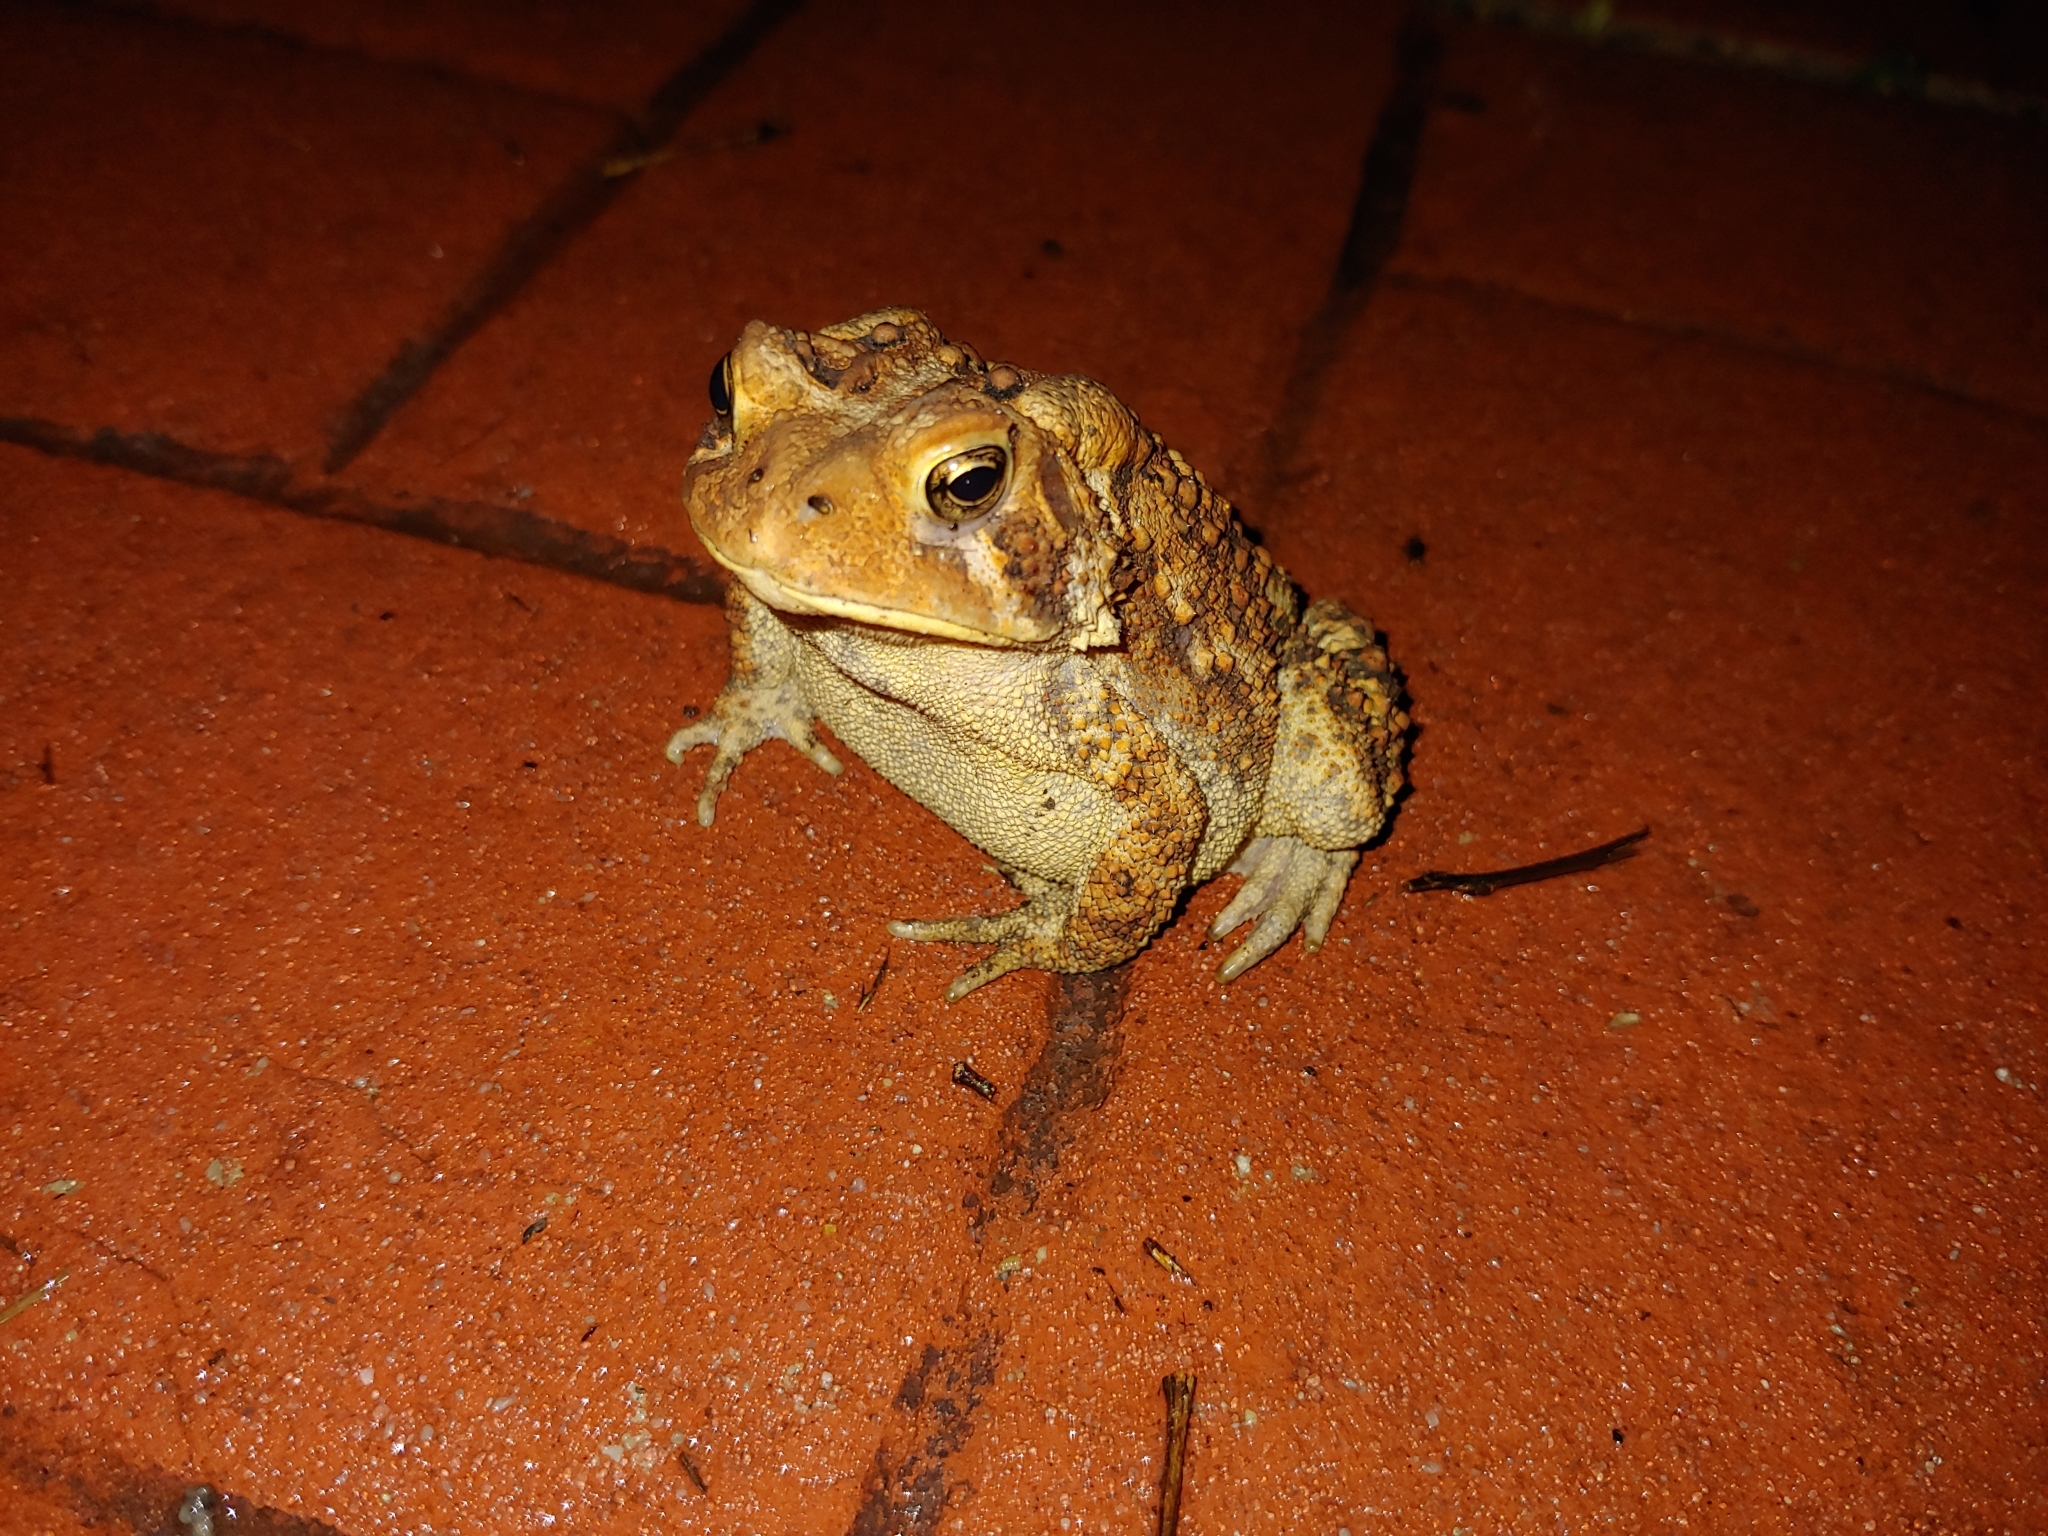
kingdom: Animalia
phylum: Chordata
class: Amphibia
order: Anura
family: Bufonidae
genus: Anaxyrus
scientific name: Anaxyrus americanus
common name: American toad
